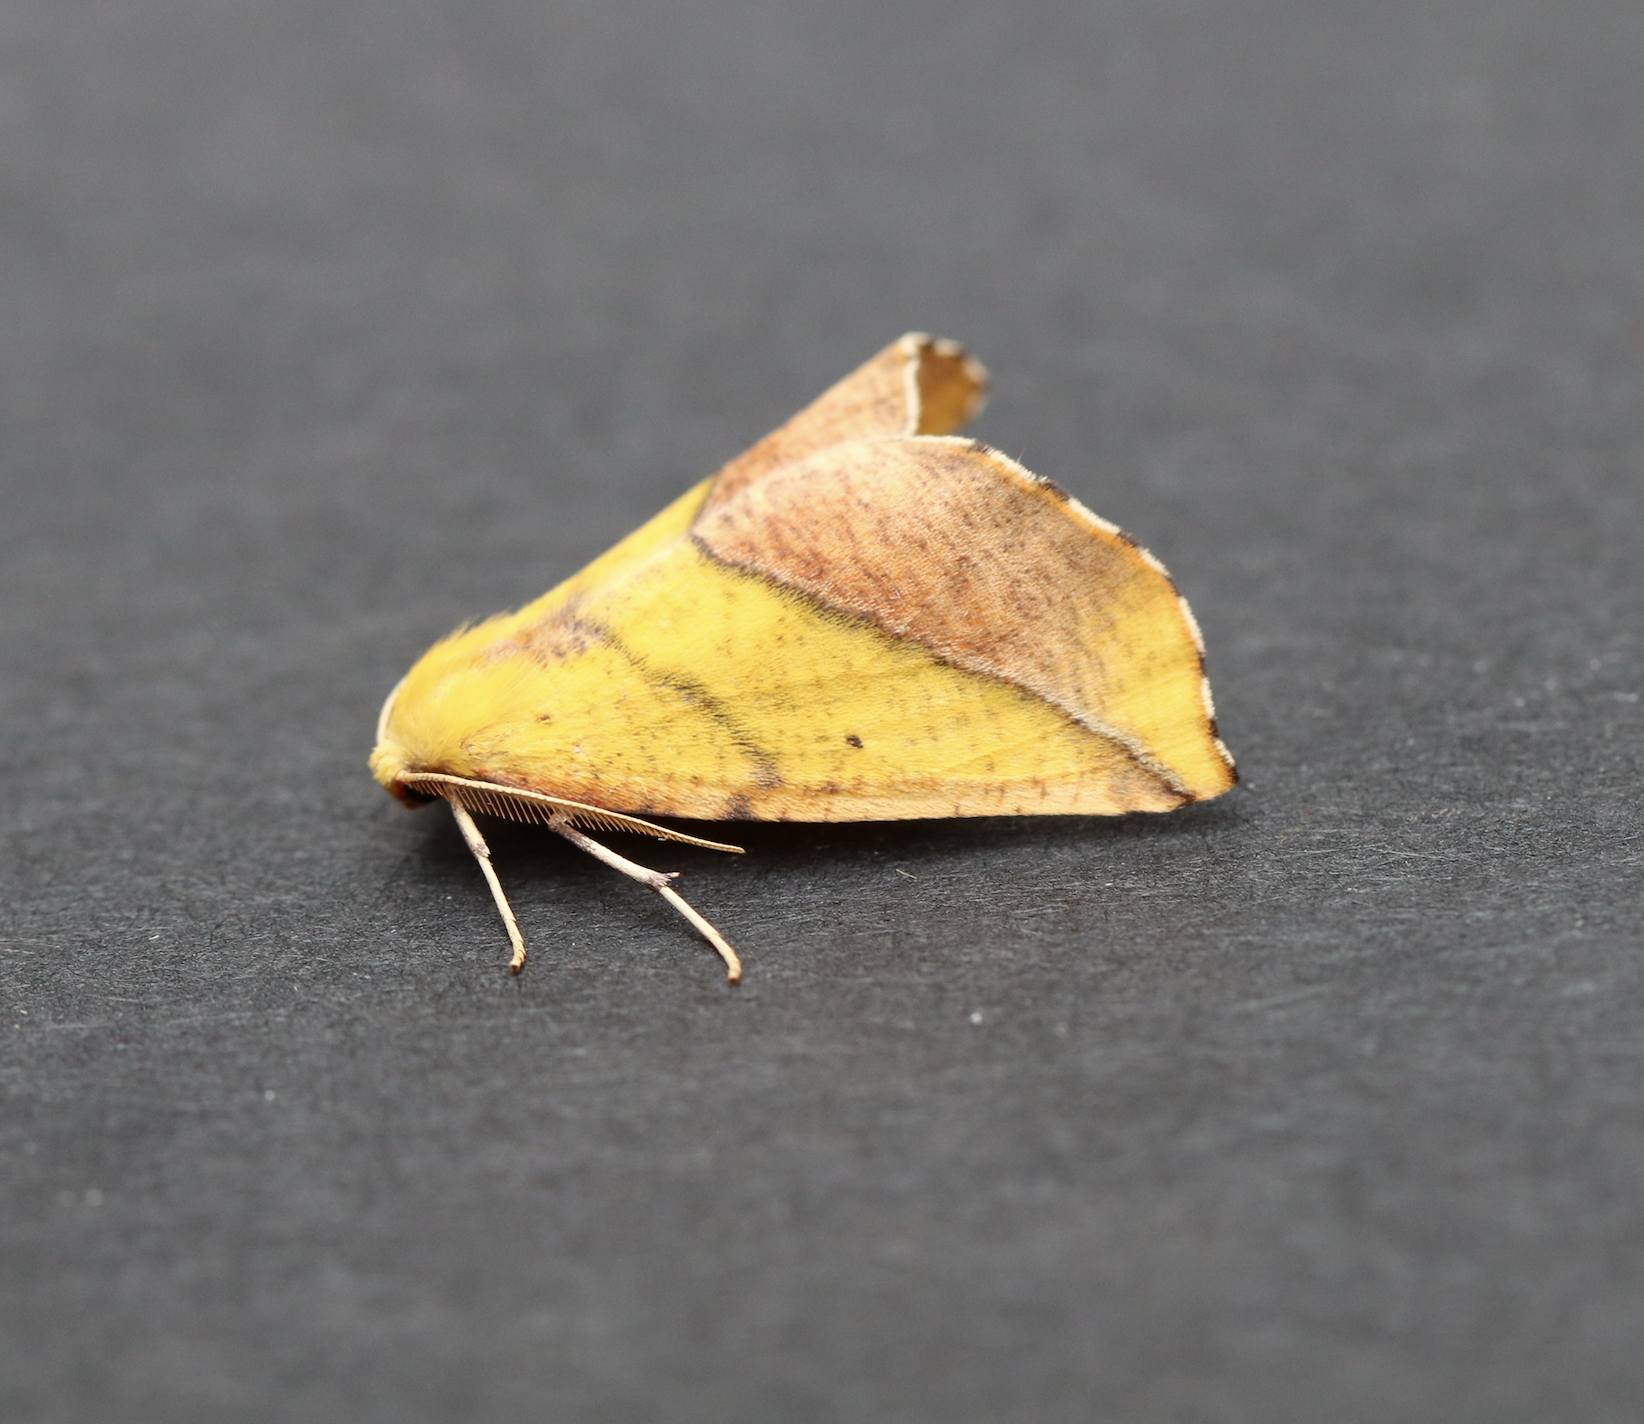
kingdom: Animalia
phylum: Arthropoda
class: Insecta
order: Lepidoptera
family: Geometridae
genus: Sicya
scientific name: Sicya macularia
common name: Sharp-lined yellow
